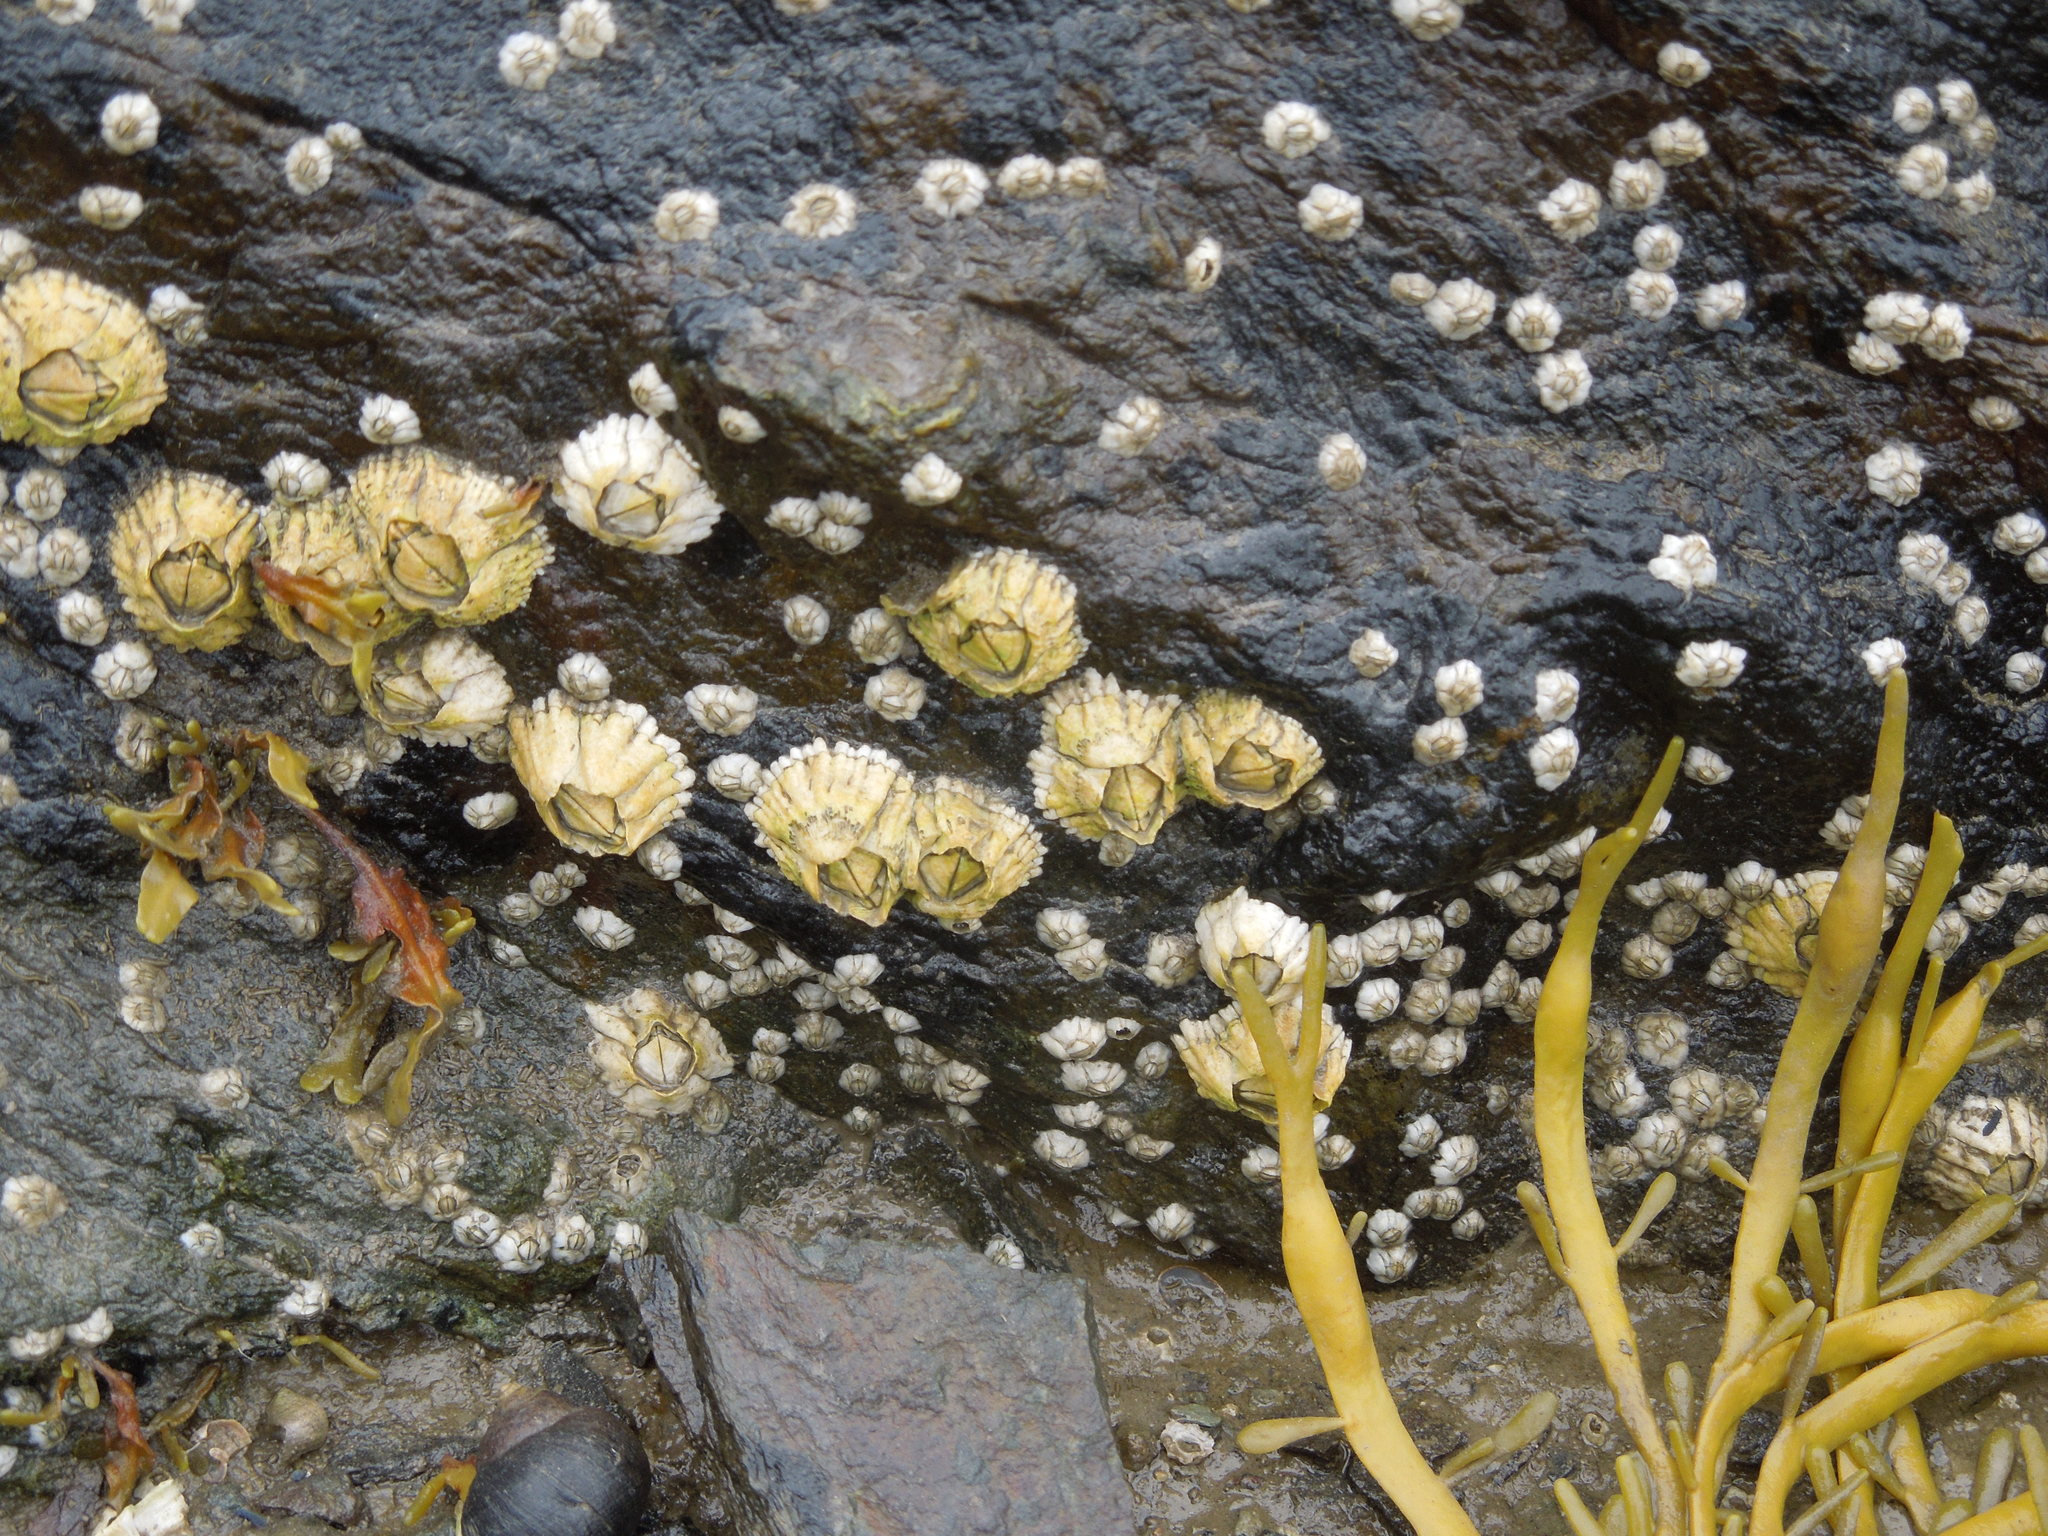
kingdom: Animalia
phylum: Arthropoda
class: Maxillopoda
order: Sessilia
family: Archaeobalanidae
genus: Semibalanus
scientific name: Semibalanus balanoides
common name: Acorn barnacle
